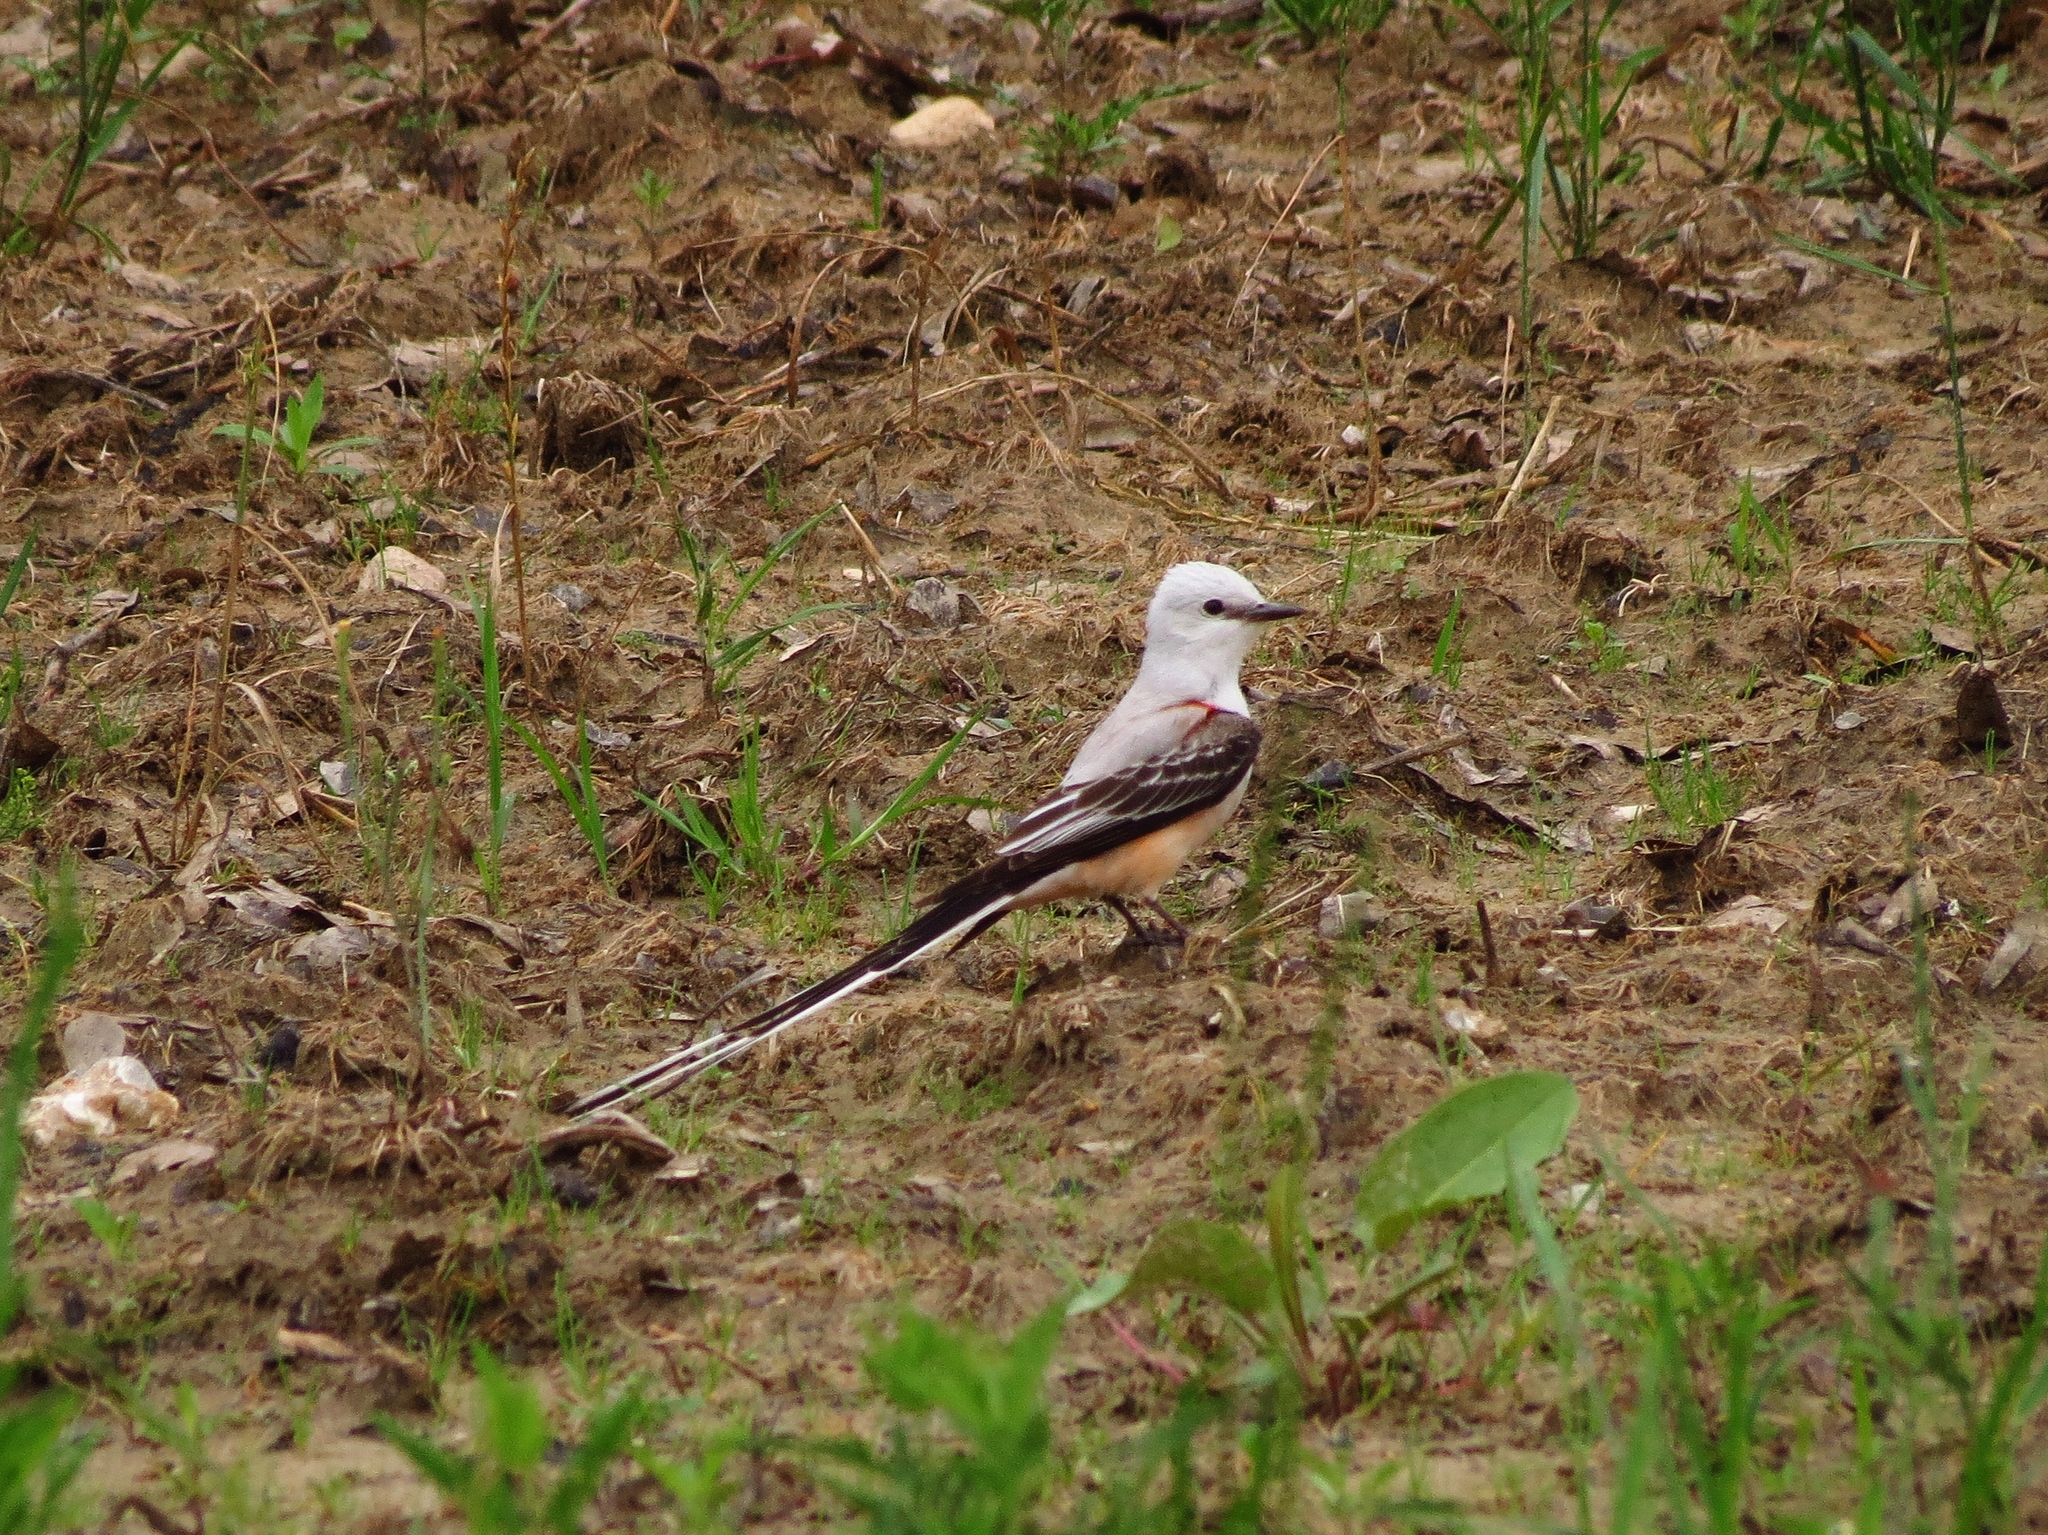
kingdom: Animalia
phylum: Chordata
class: Aves
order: Passeriformes
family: Tyrannidae
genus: Tyrannus
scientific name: Tyrannus forficatus
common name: Scissor-tailed flycatcher
